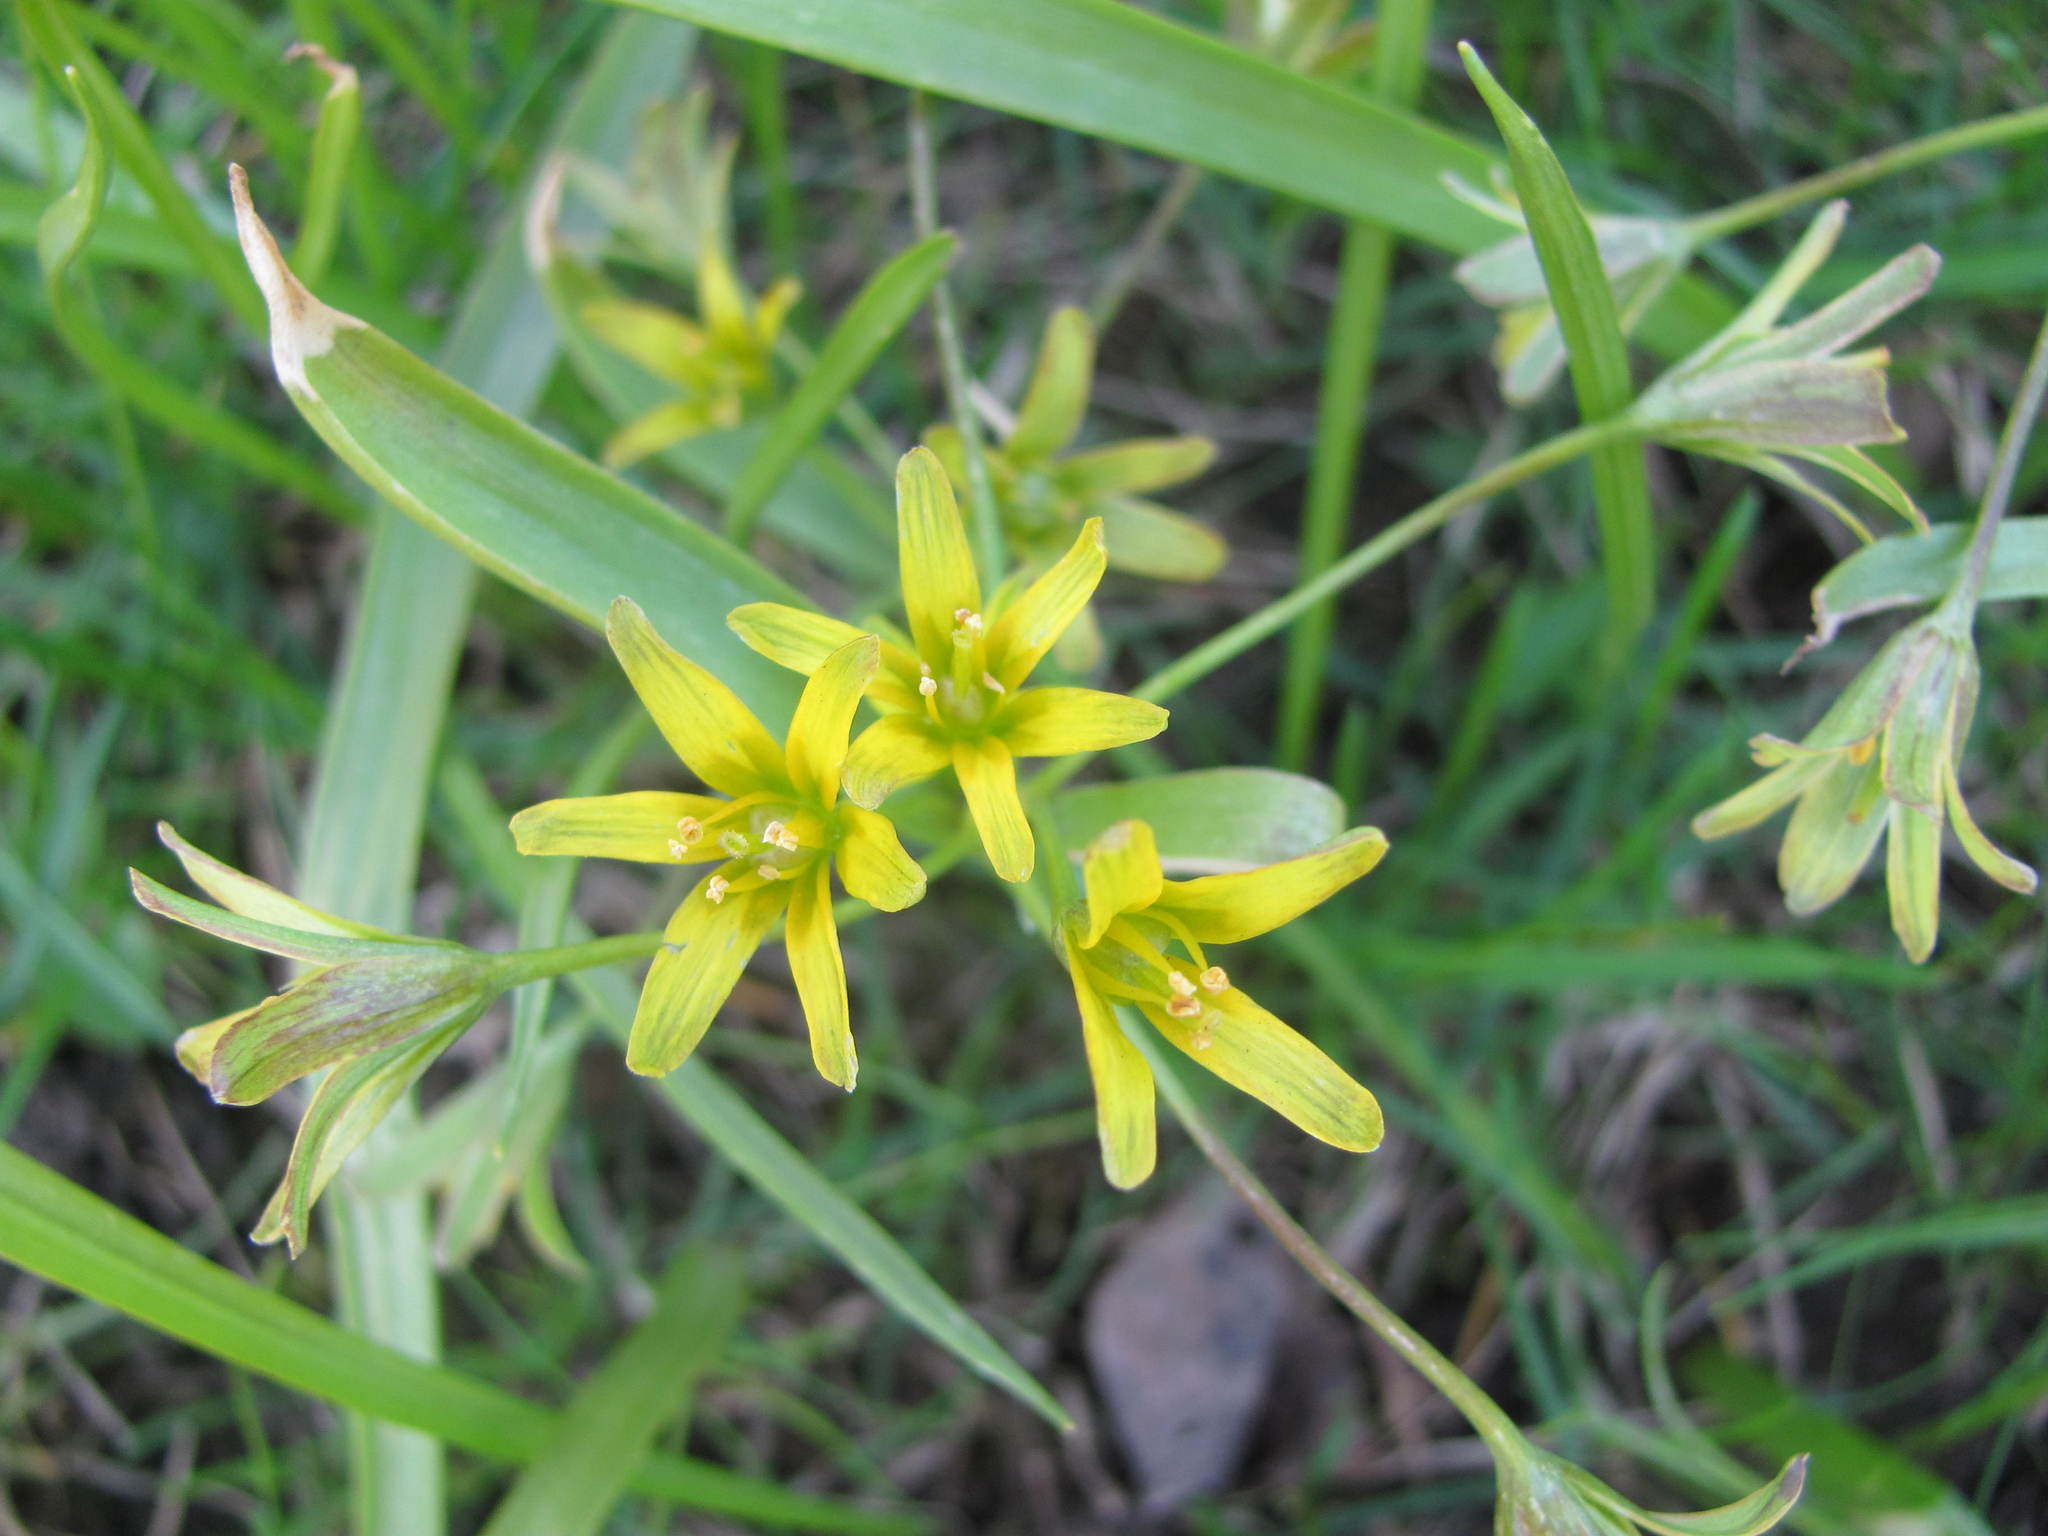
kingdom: Plantae
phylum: Tracheophyta
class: Liliopsida
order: Liliales
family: Liliaceae
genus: Gagea
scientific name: Gagea lutea
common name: Yellow star-of-bethlehem
